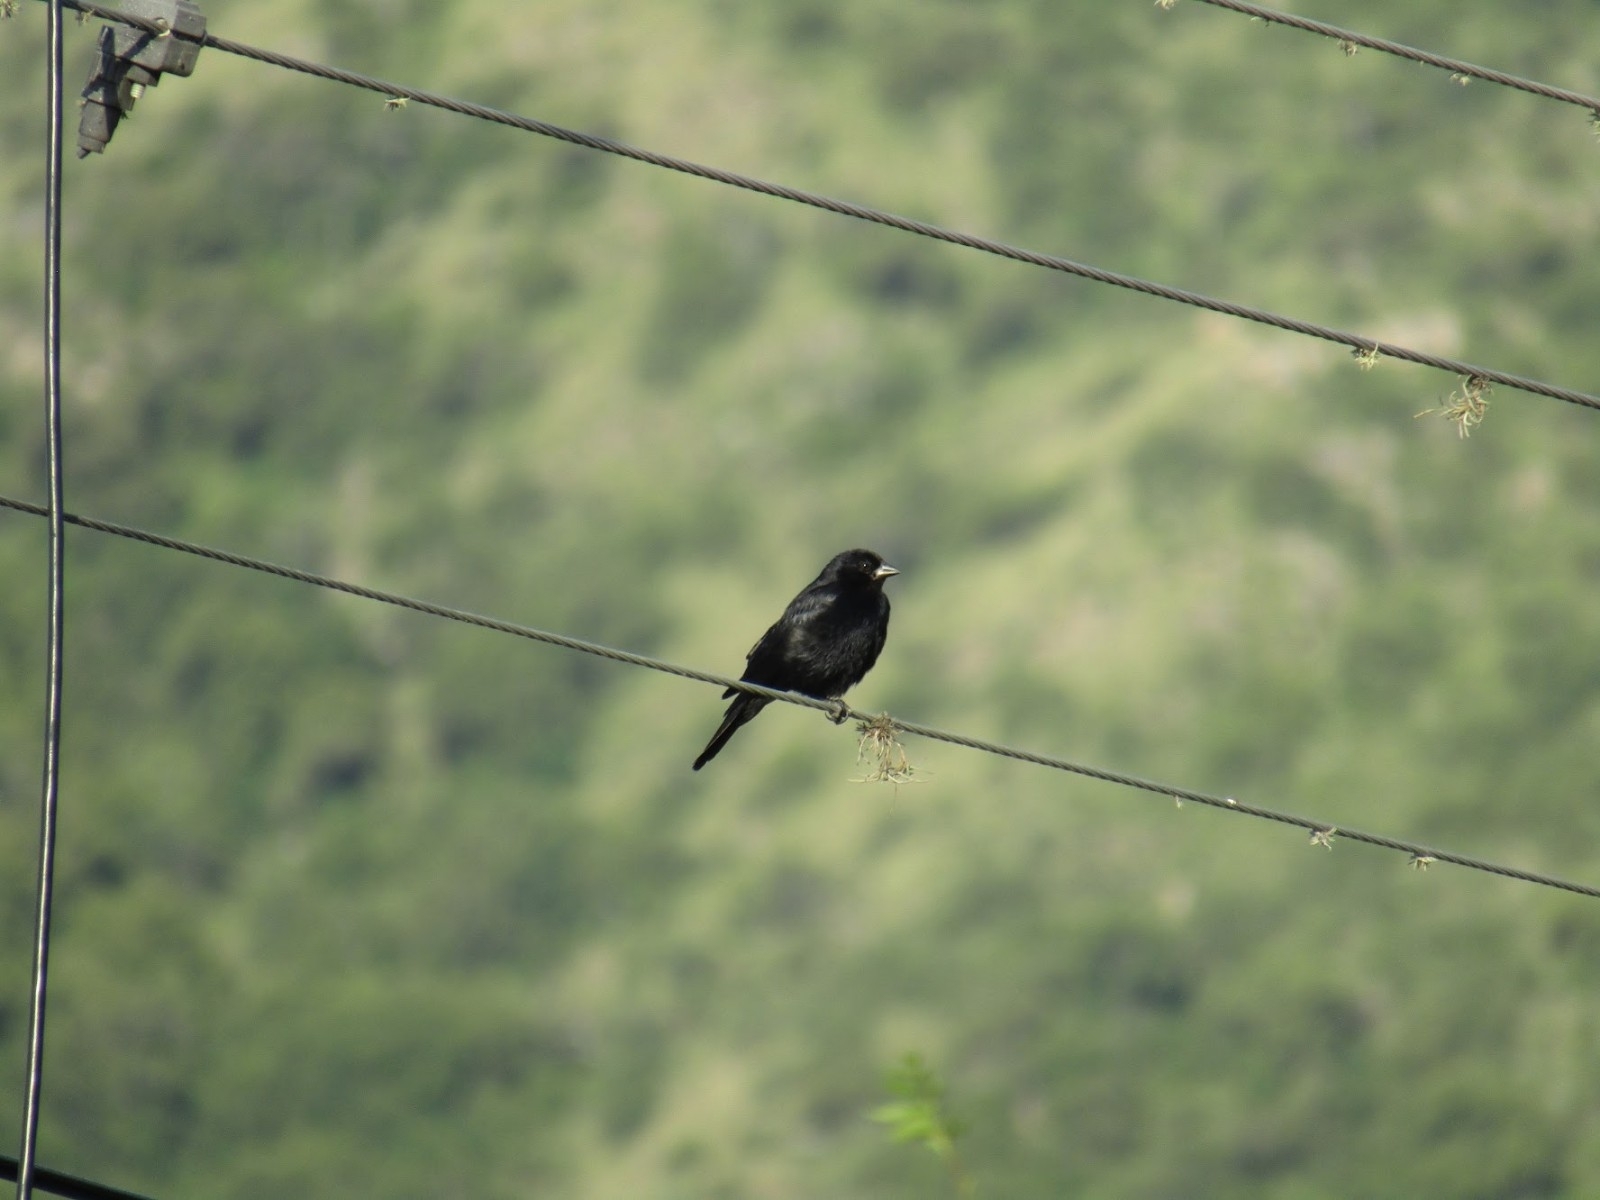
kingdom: Animalia
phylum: Chordata
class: Aves
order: Passeriformes
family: Icteridae
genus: Molothrus
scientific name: Molothrus rufoaxillaris
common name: Screaming cowbird
